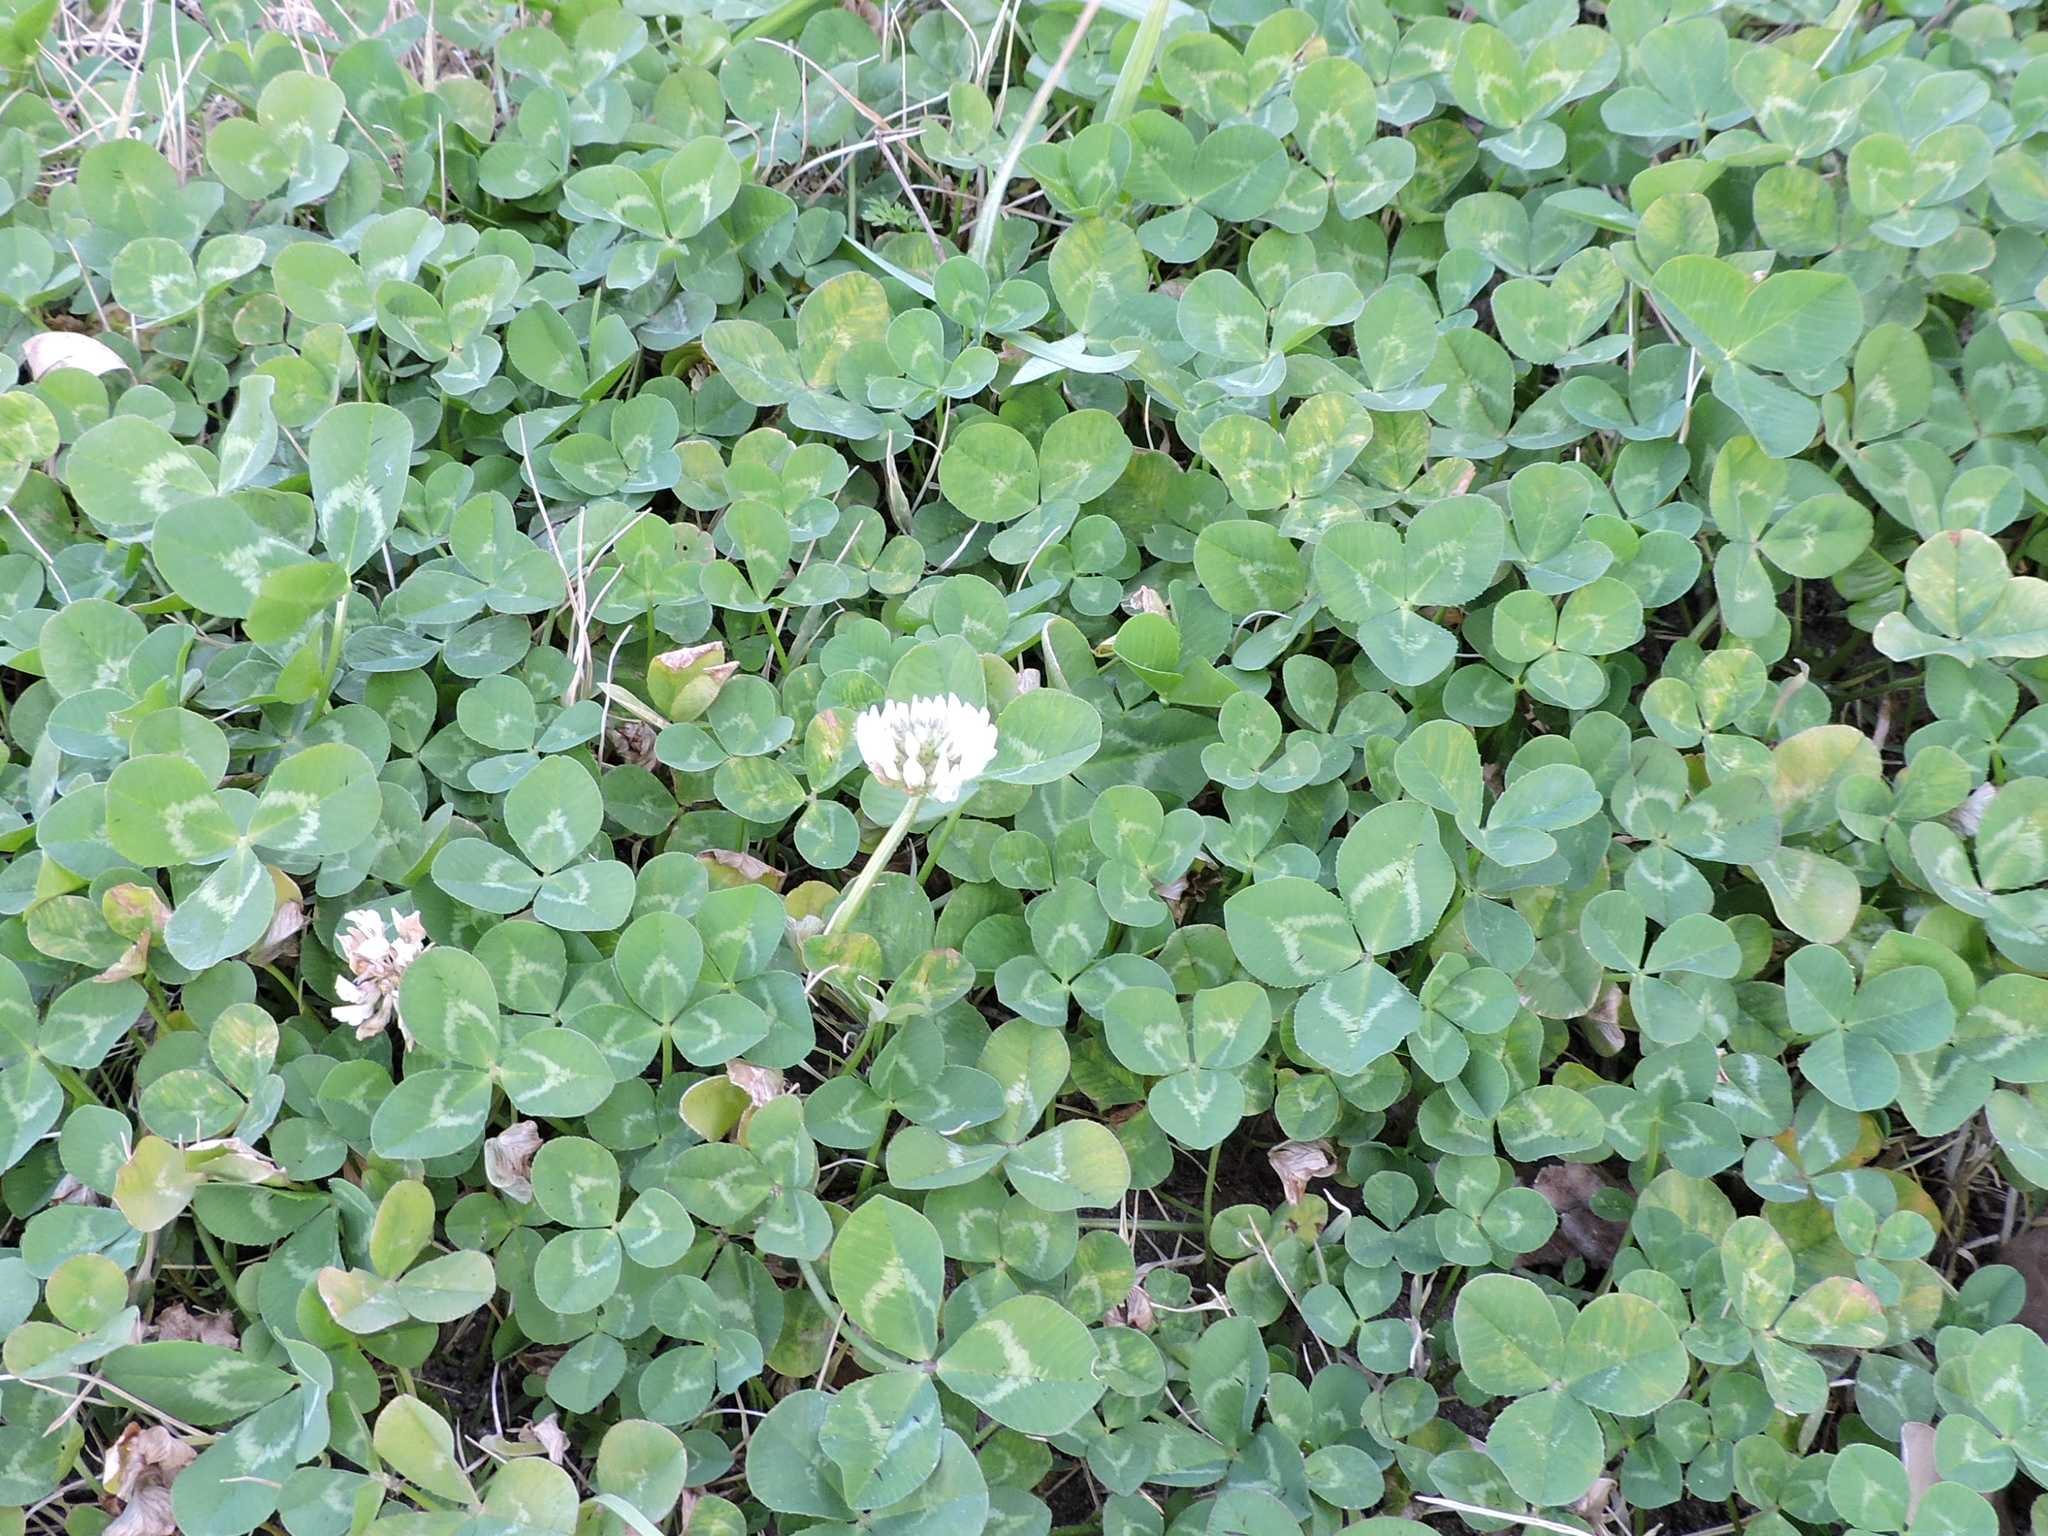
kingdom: Plantae
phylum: Tracheophyta
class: Magnoliopsida
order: Fabales
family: Fabaceae
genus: Trifolium
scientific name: Trifolium repens
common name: White clover
